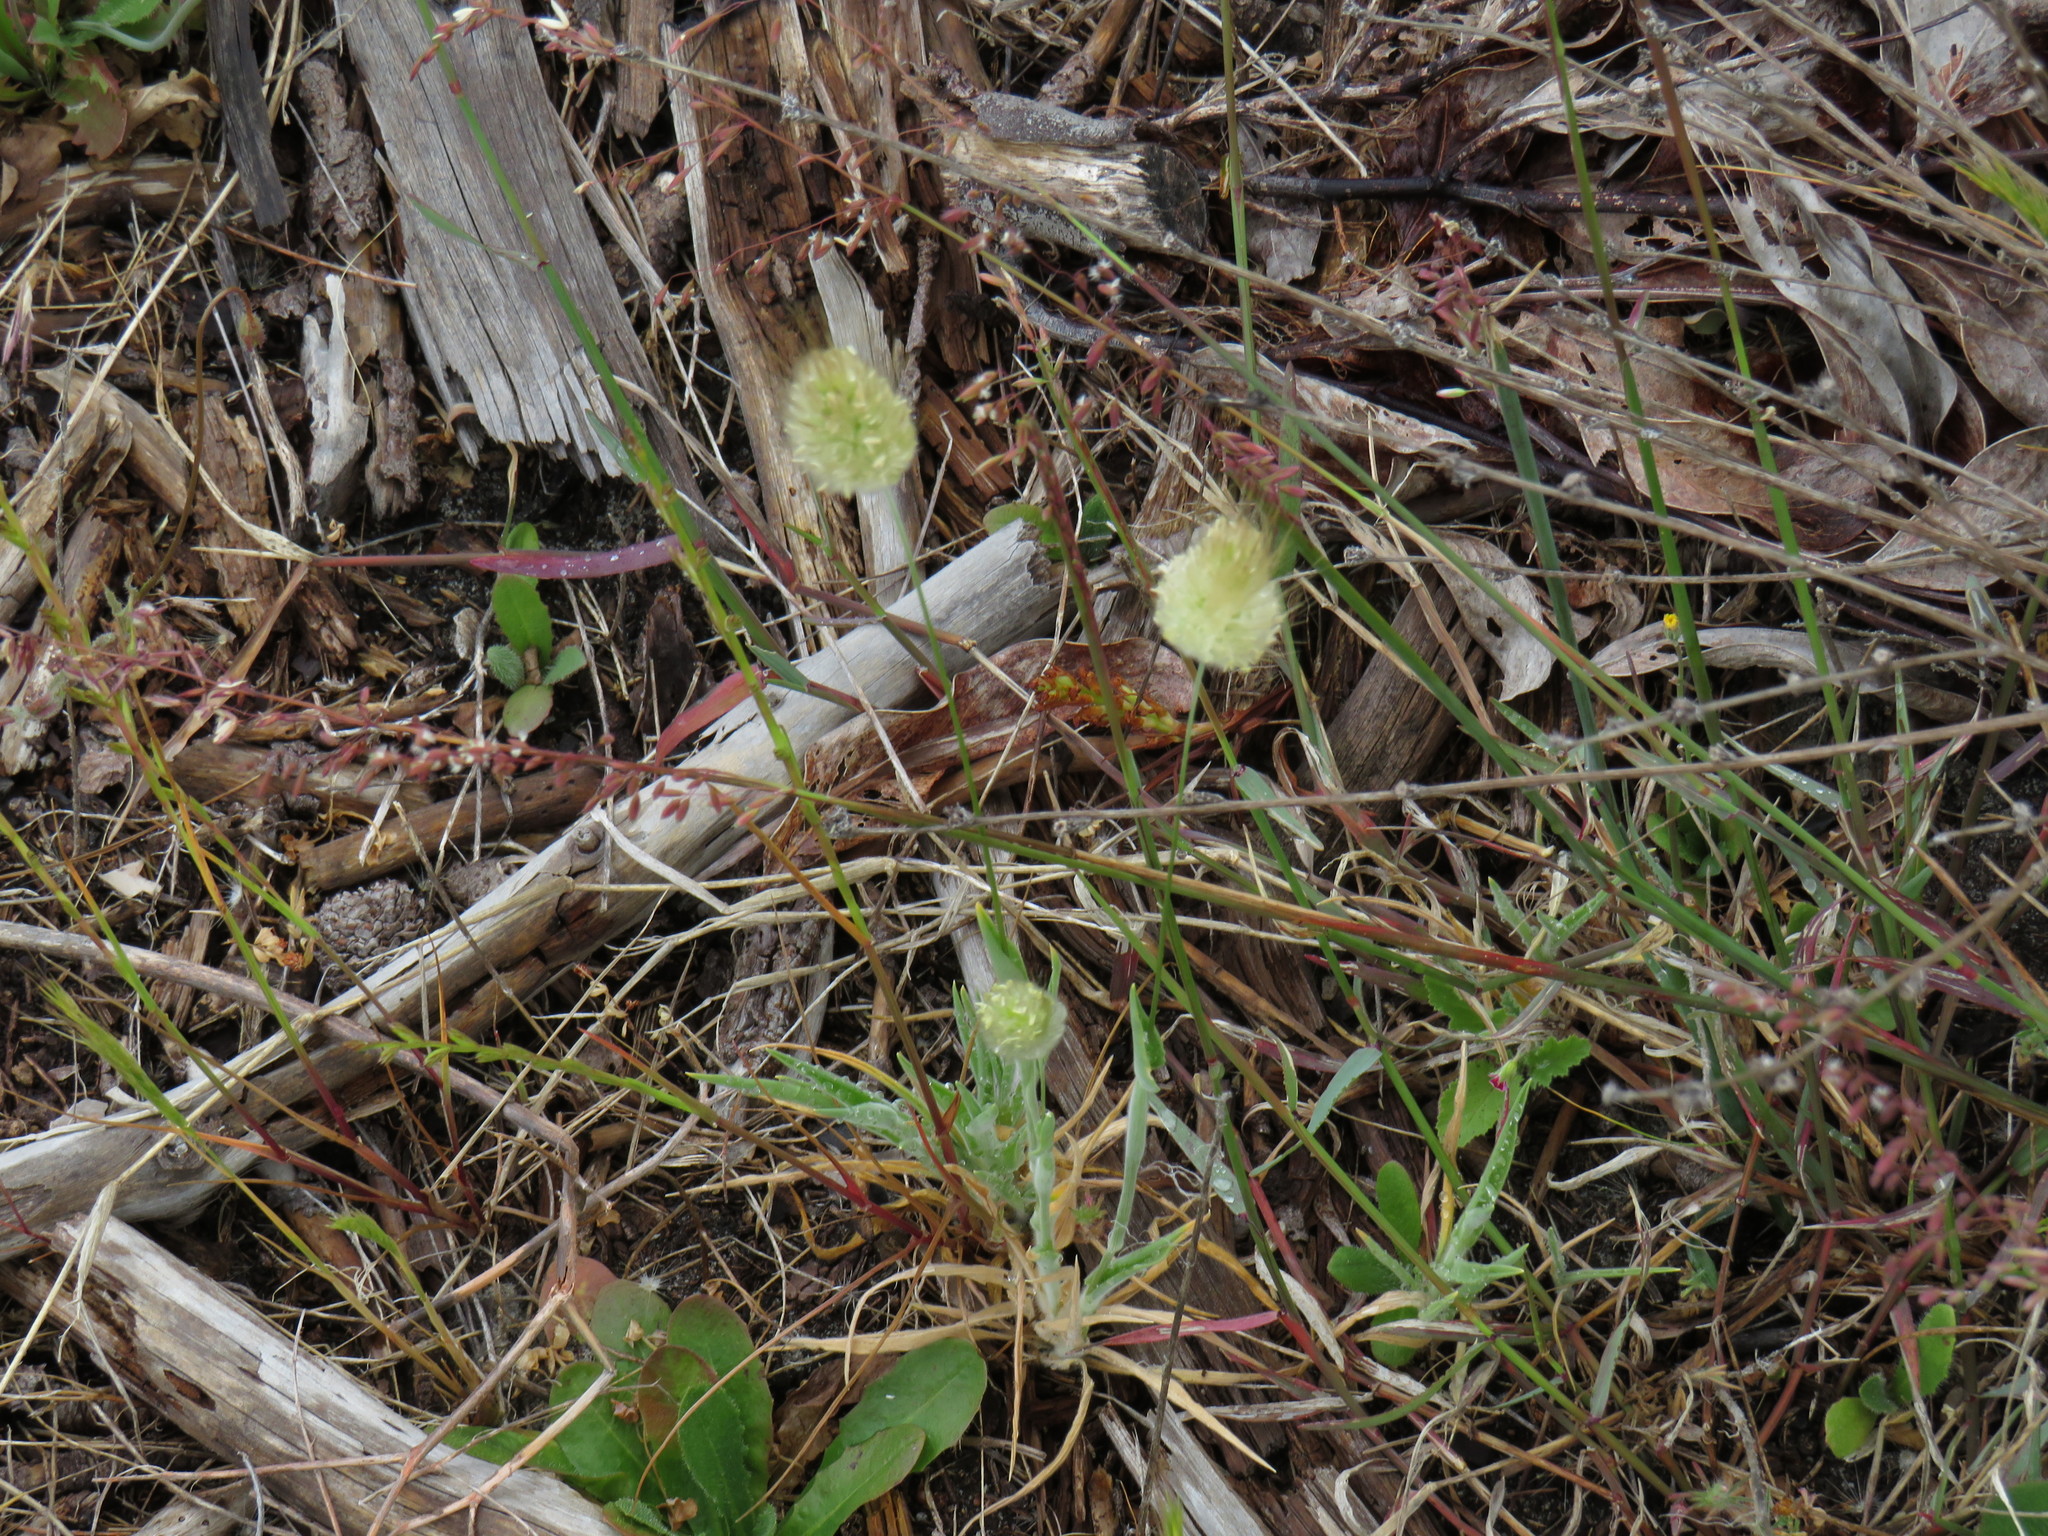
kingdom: Plantae
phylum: Tracheophyta
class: Liliopsida
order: Poales
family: Poaceae
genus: Lagurus
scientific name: Lagurus ovatus
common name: Hare's-tail
